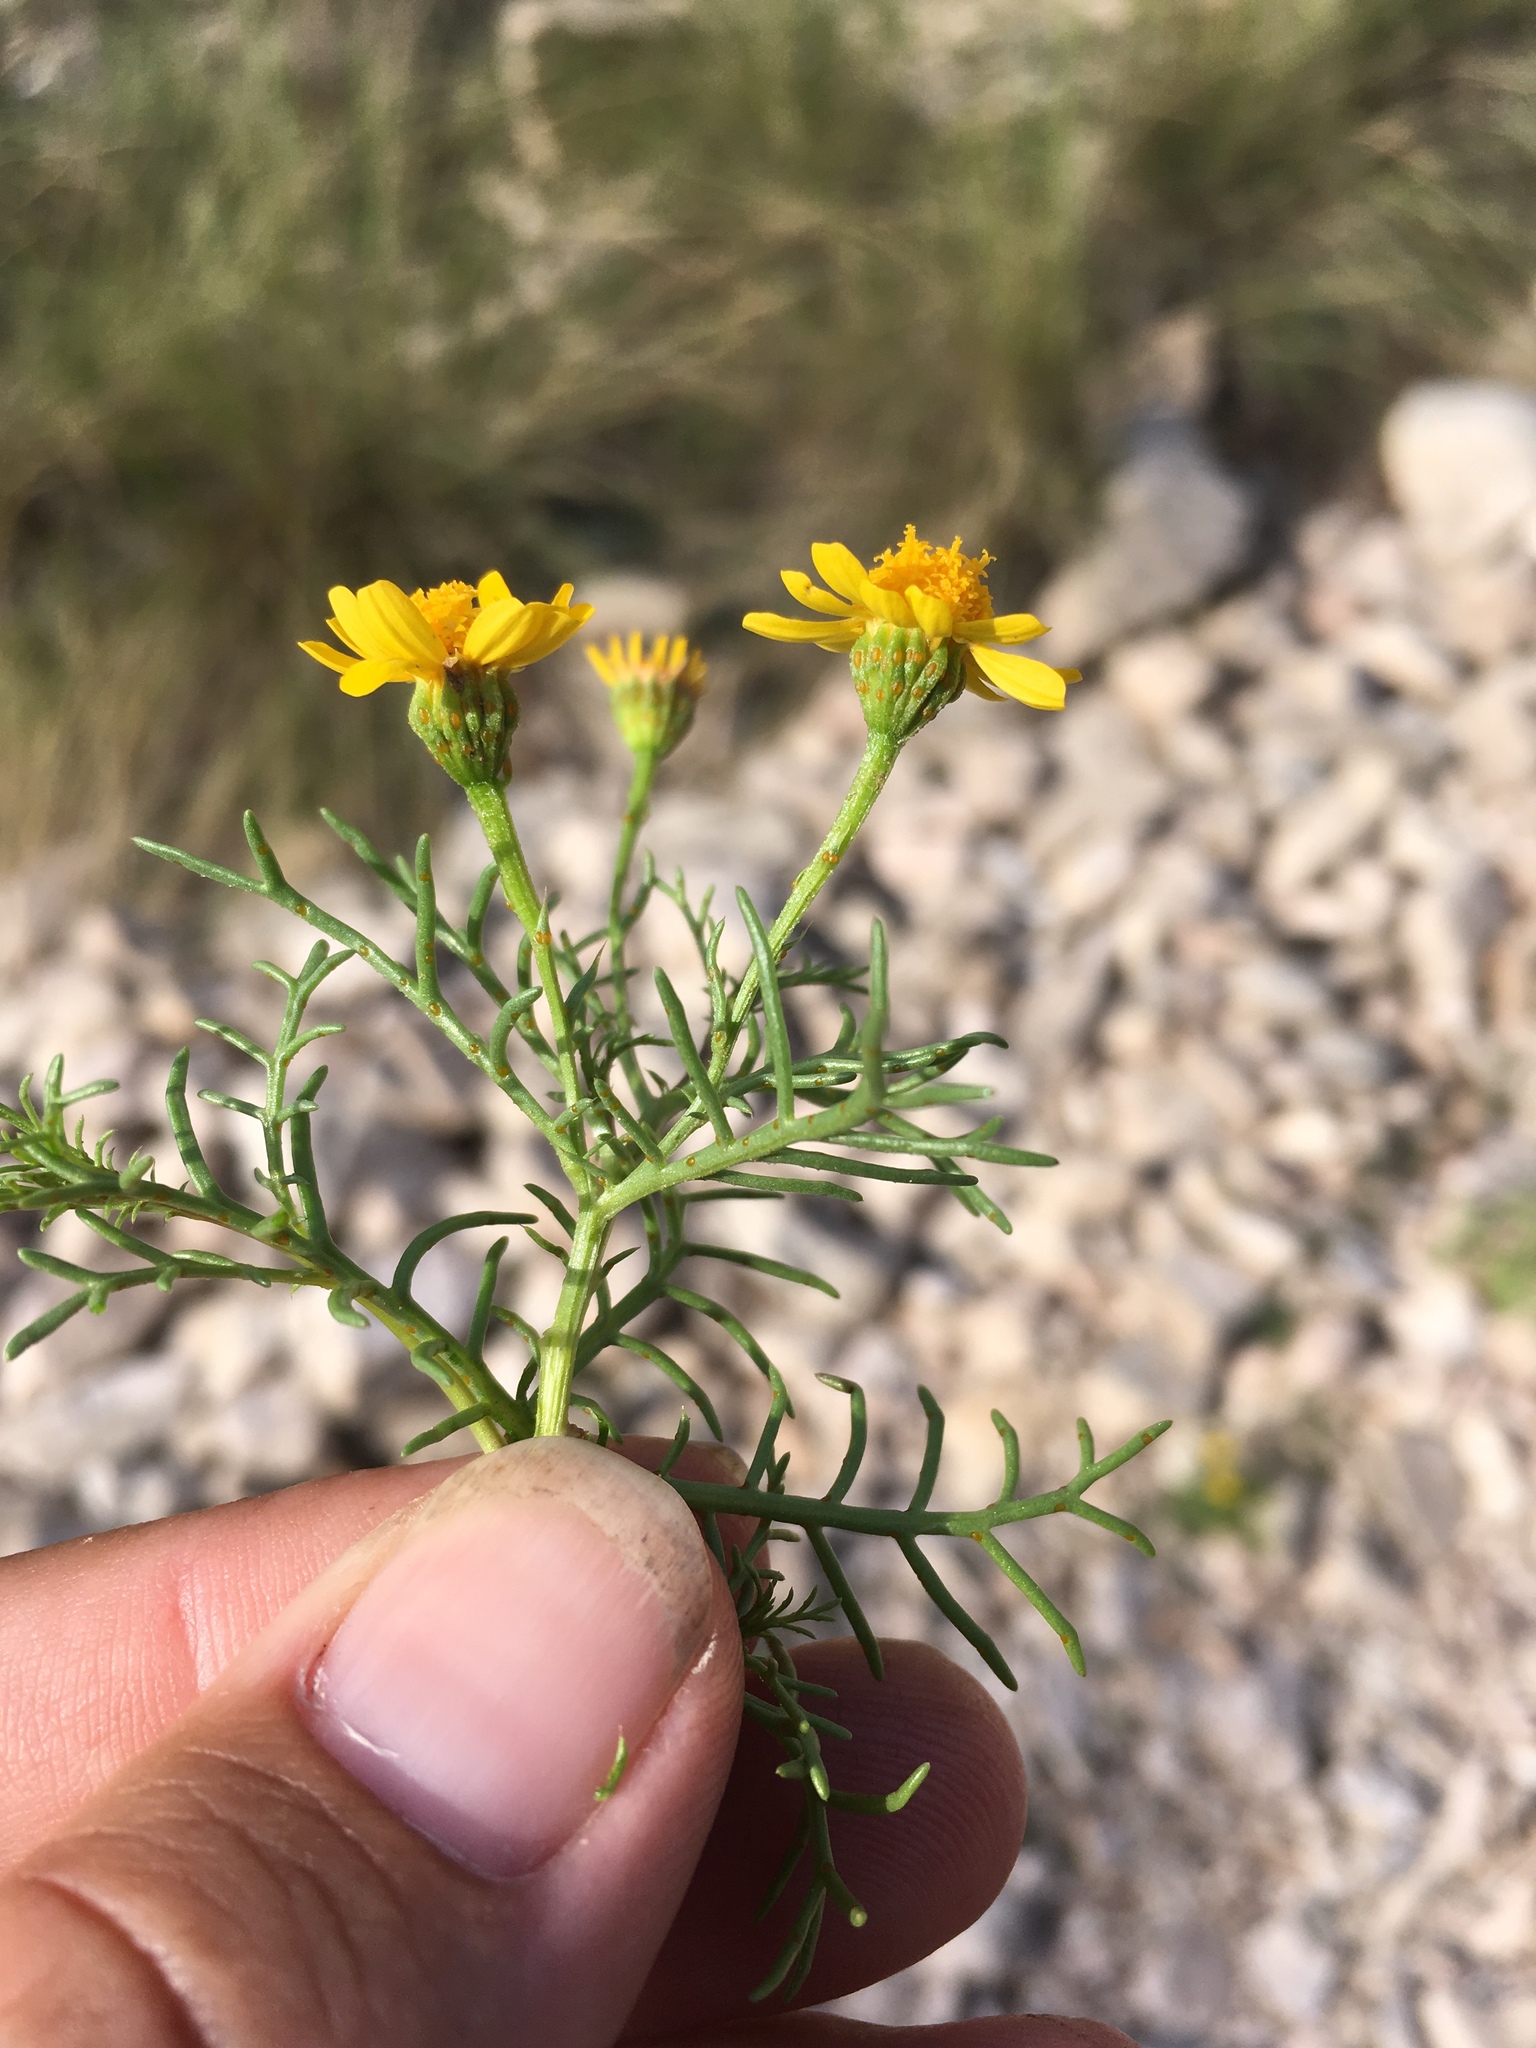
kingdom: Plantae
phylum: Tracheophyta
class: Magnoliopsida
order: Asterales
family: Asteraceae
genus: Dyssodia
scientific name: Dyssodia papposa
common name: Dogweed
